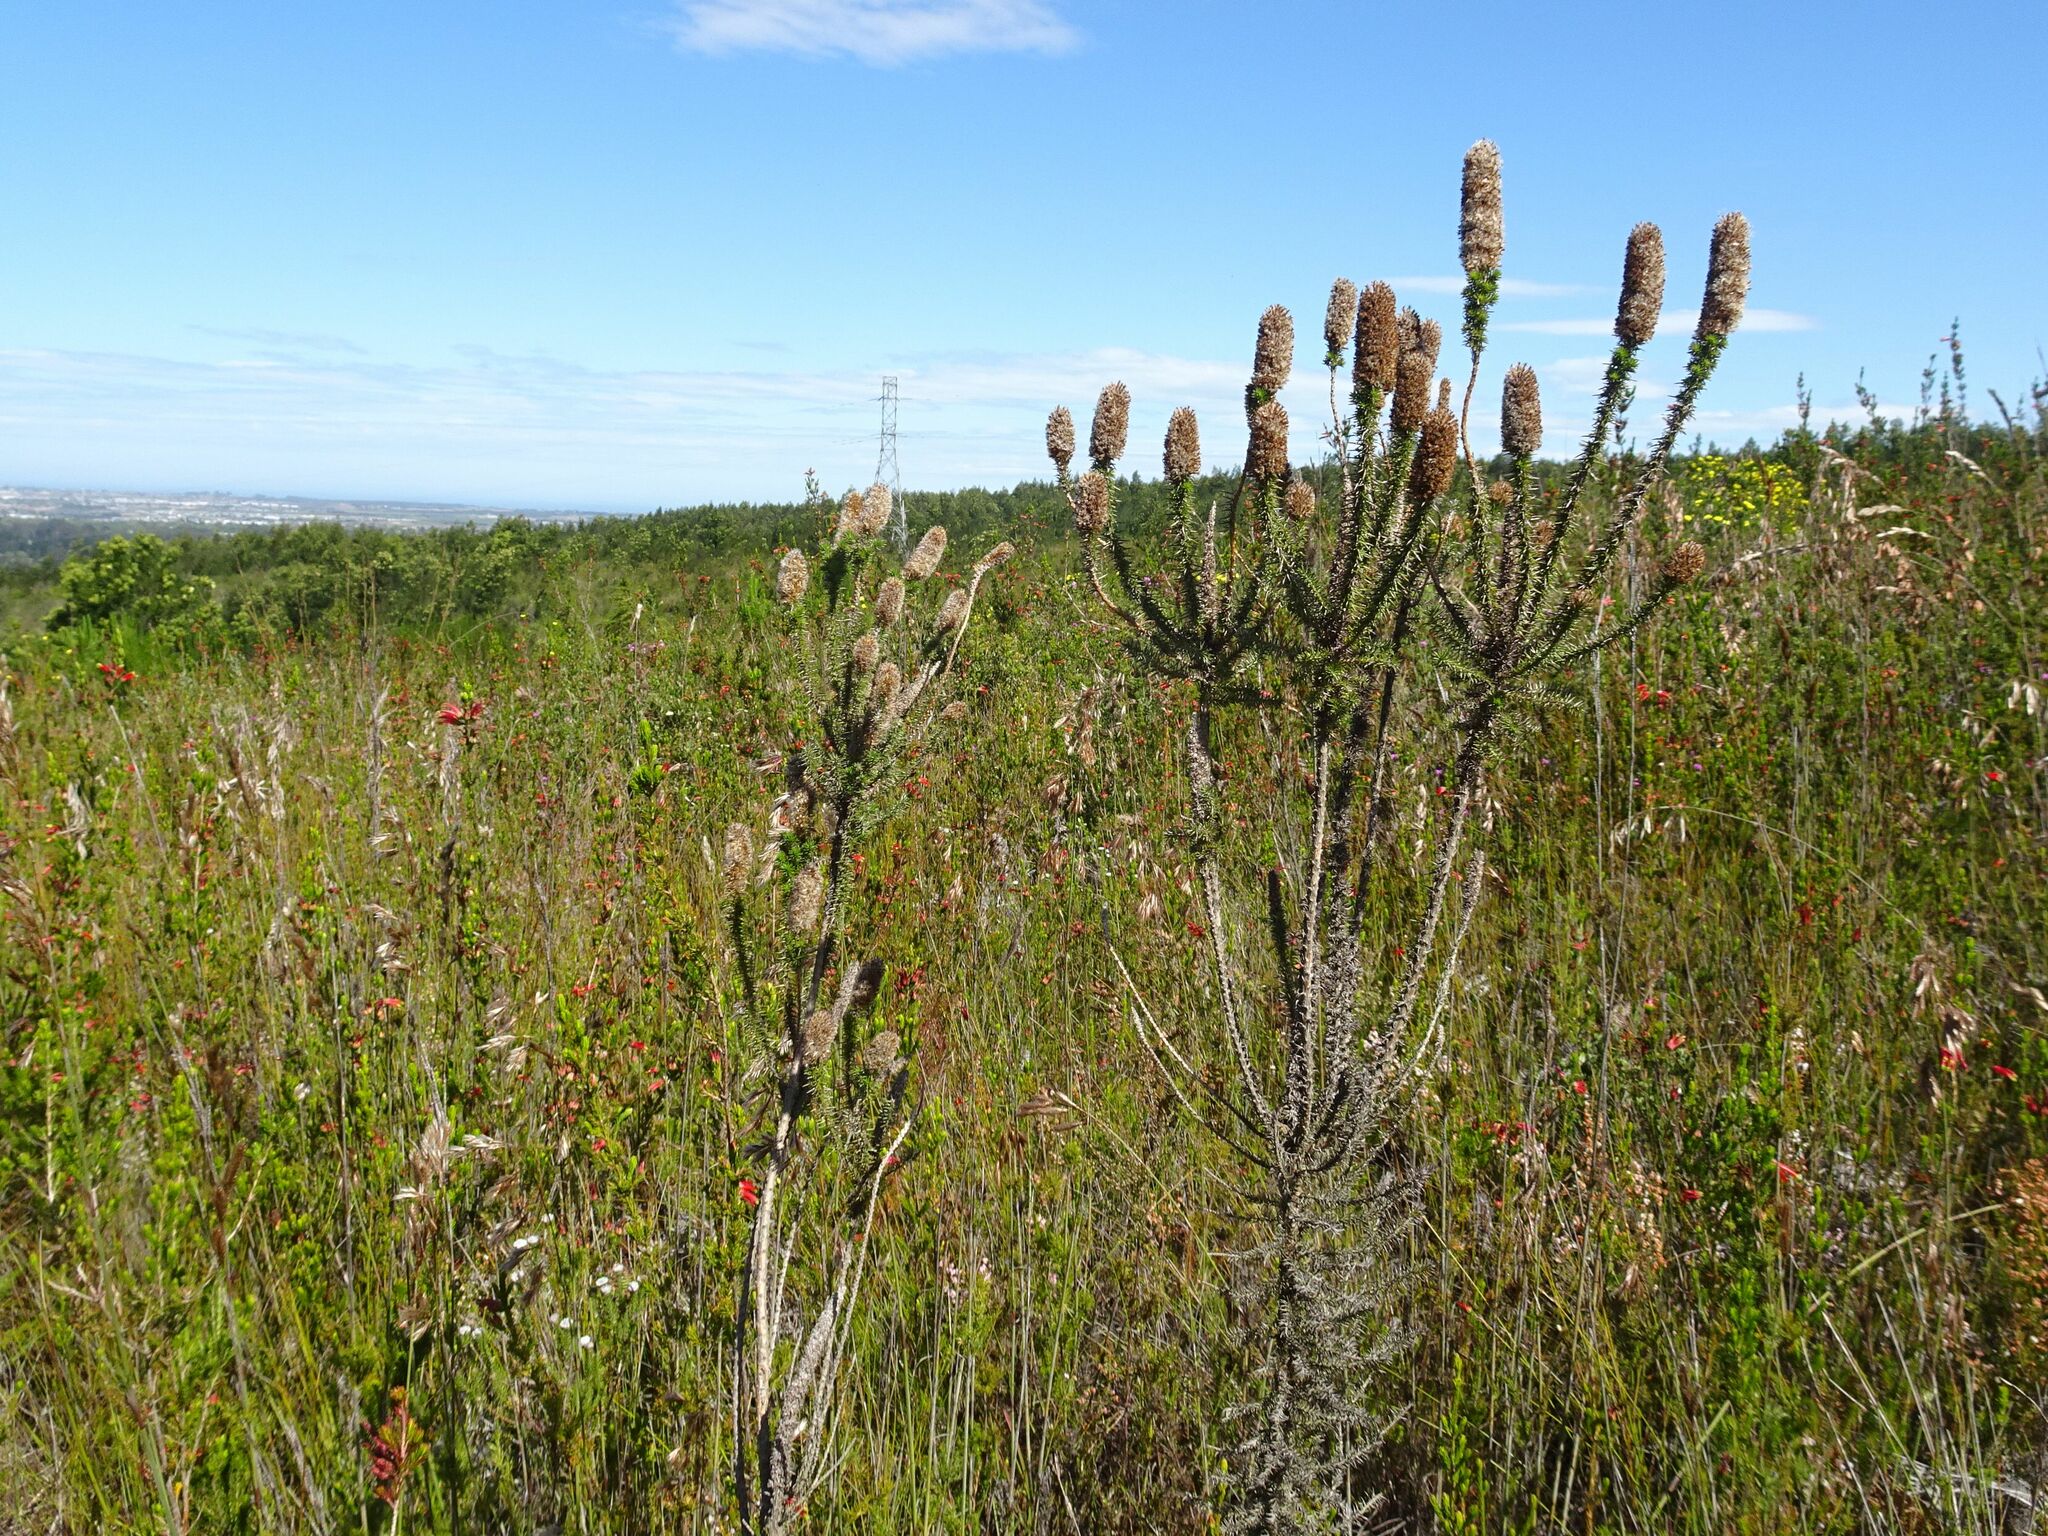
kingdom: Plantae
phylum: Tracheophyta
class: Magnoliopsida
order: Asterales
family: Asteraceae
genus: Stoebe
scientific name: Stoebe alopecuroides
